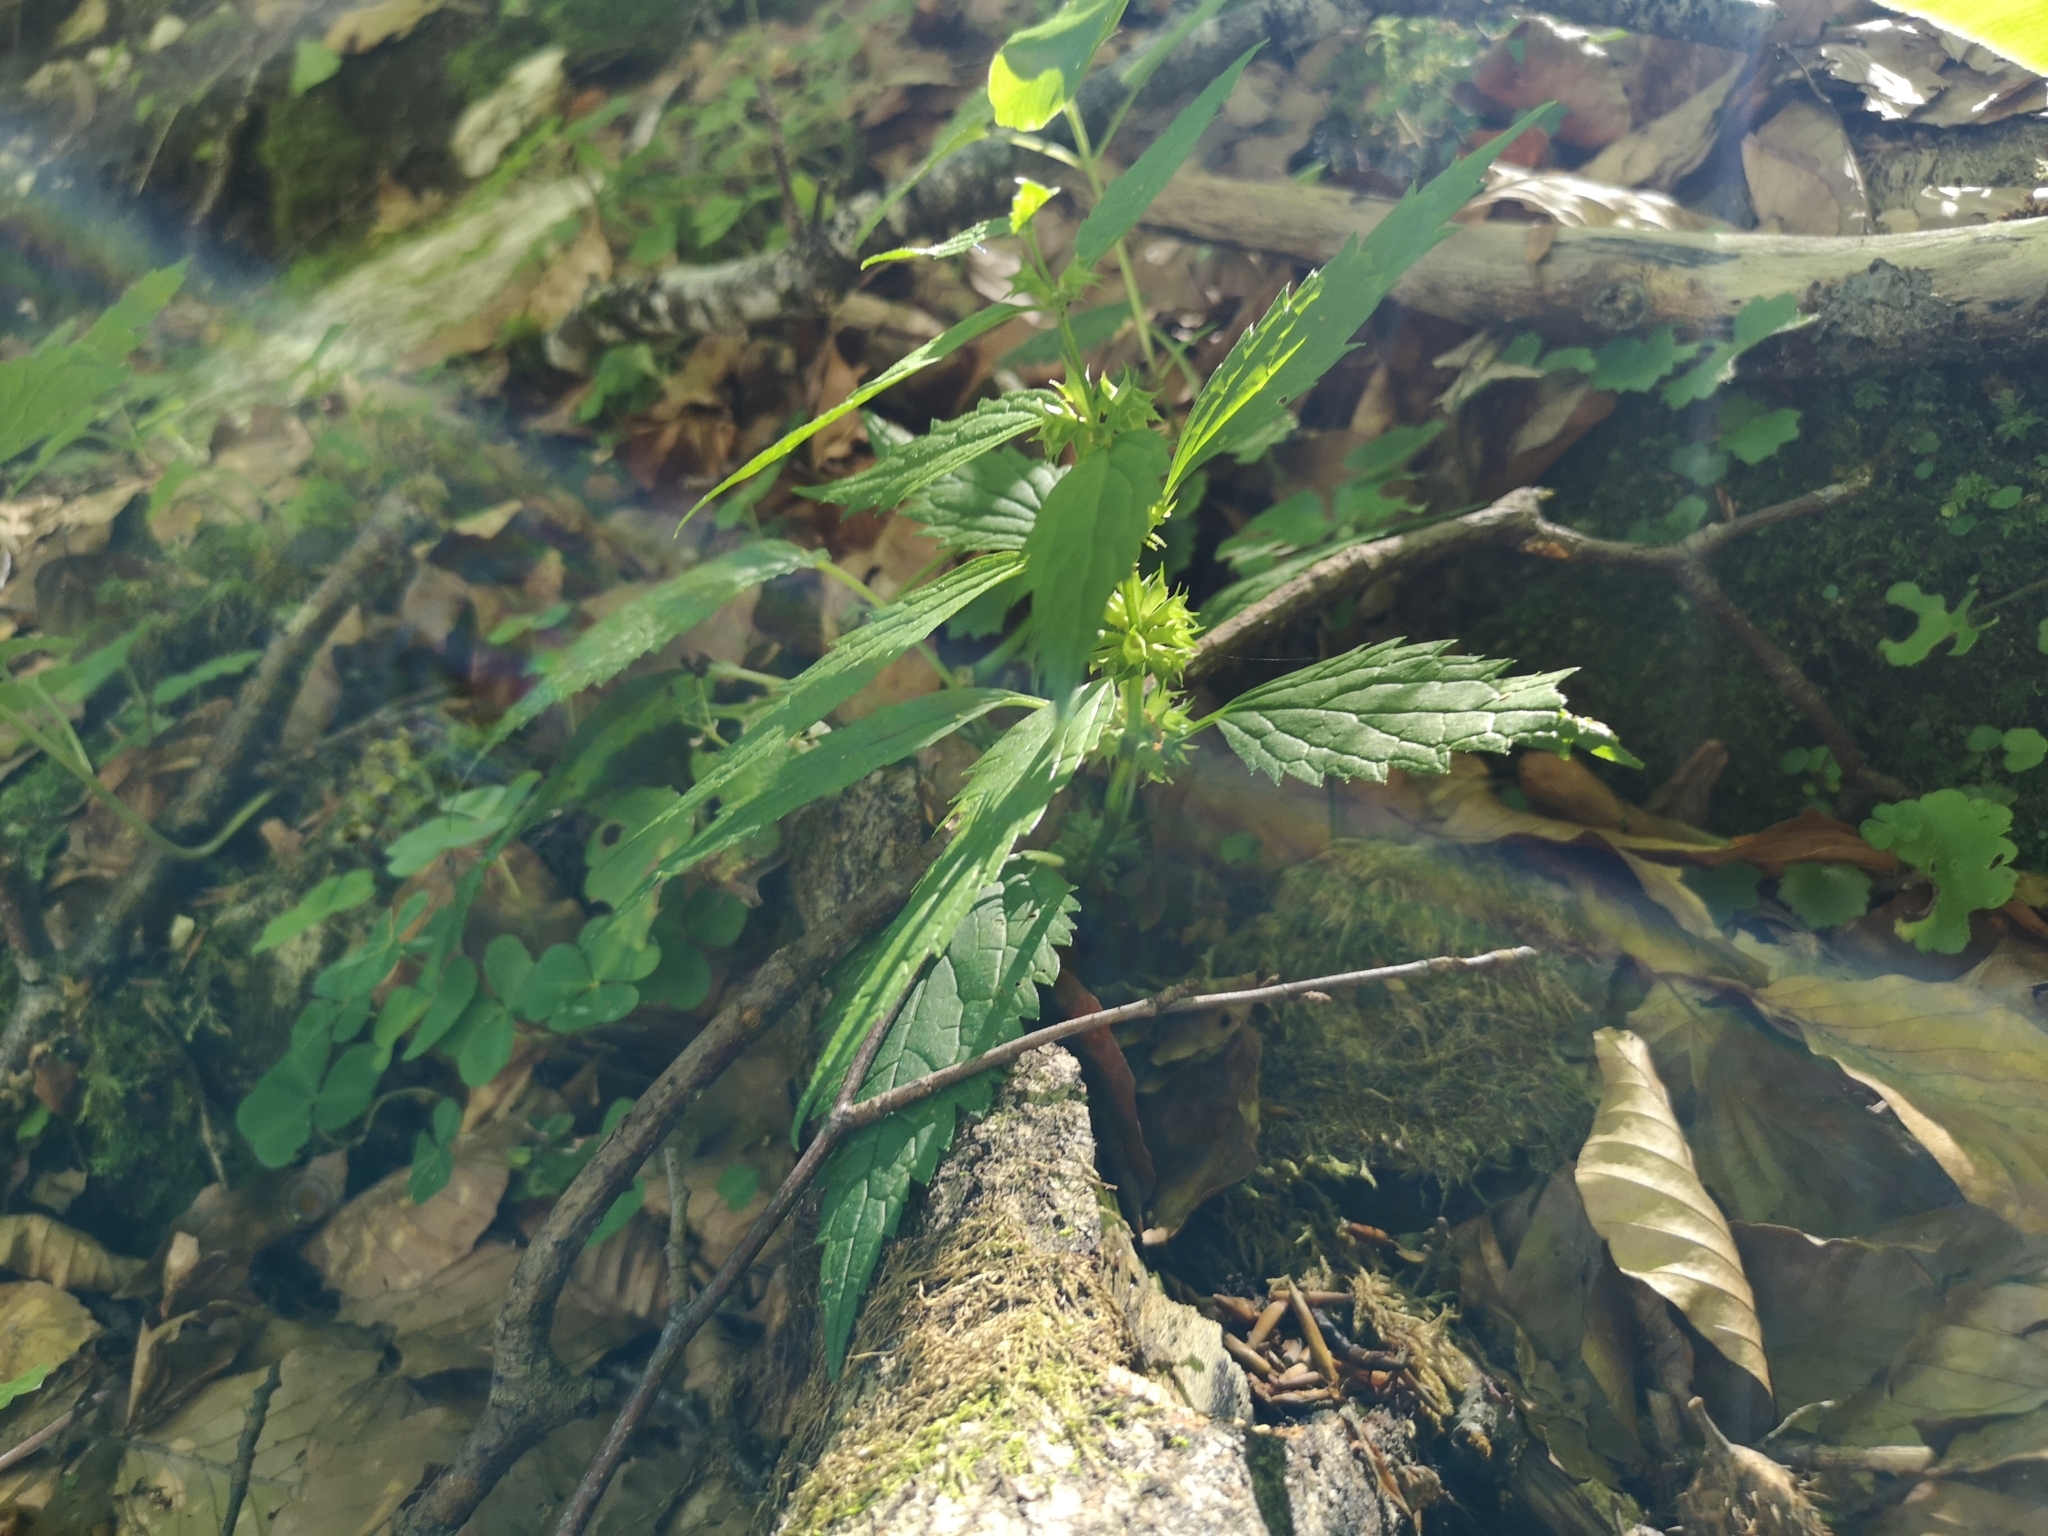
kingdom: Plantae
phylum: Tracheophyta
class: Magnoliopsida
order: Lamiales
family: Lamiaceae
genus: Lamium
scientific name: Lamium galeobdolon
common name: Yellow archangel
